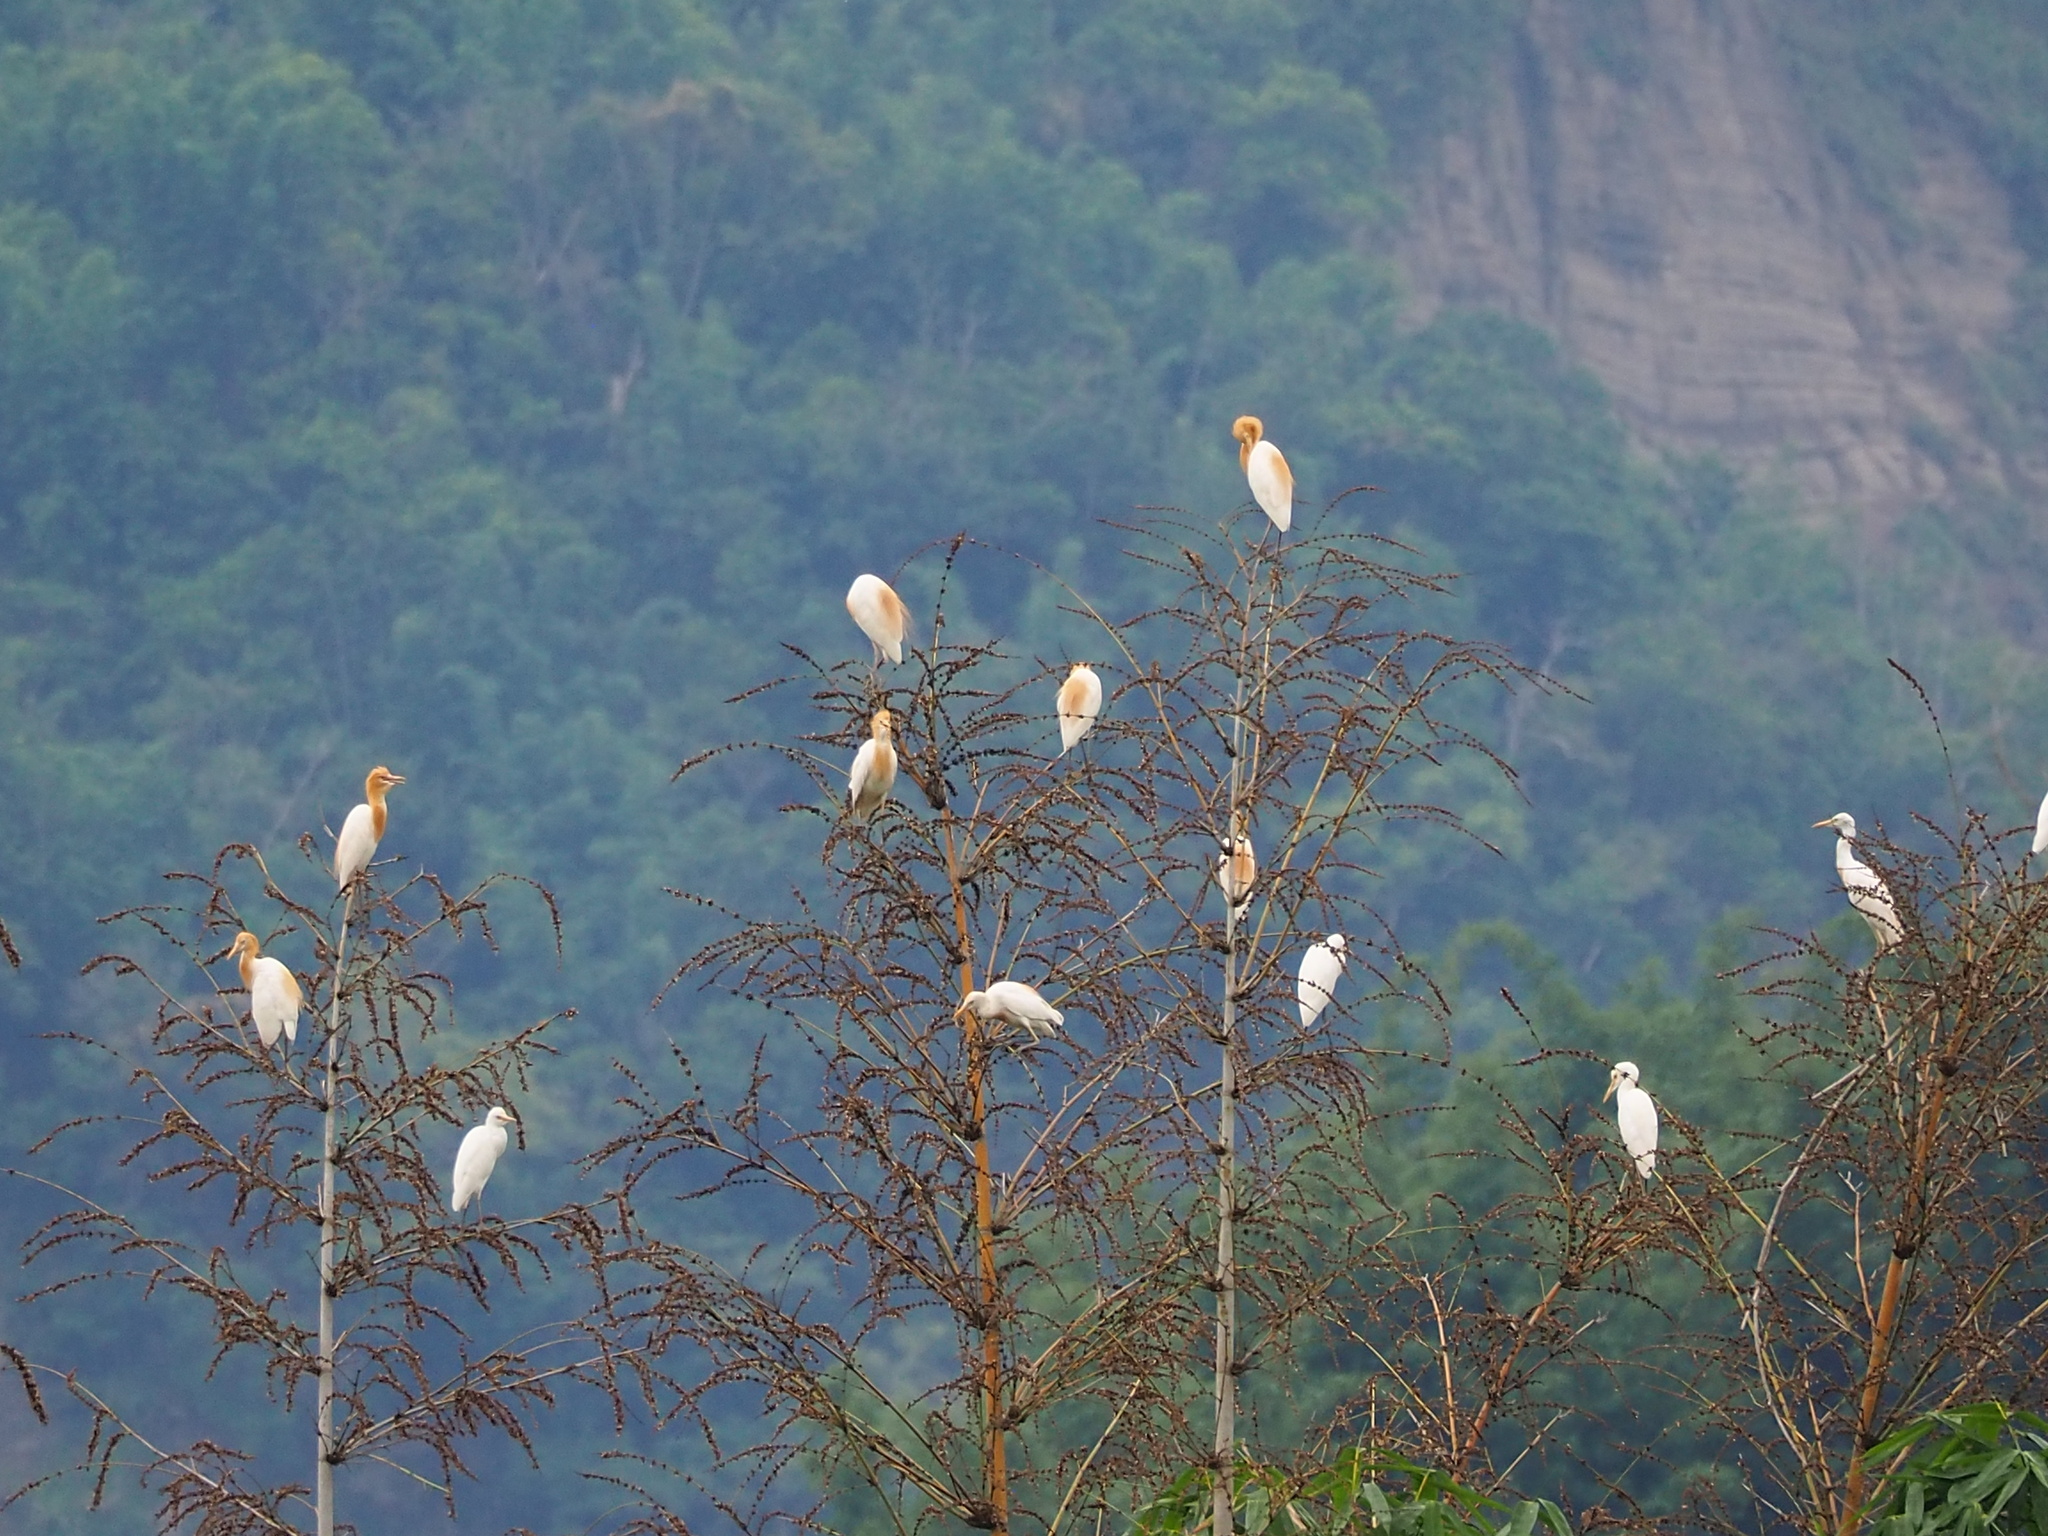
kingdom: Animalia
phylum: Chordata
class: Aves
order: Pelecaniformes
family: Ardeidae
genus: Bubulcus
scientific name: Bubulcus coromandus
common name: Eastern cattle egret
